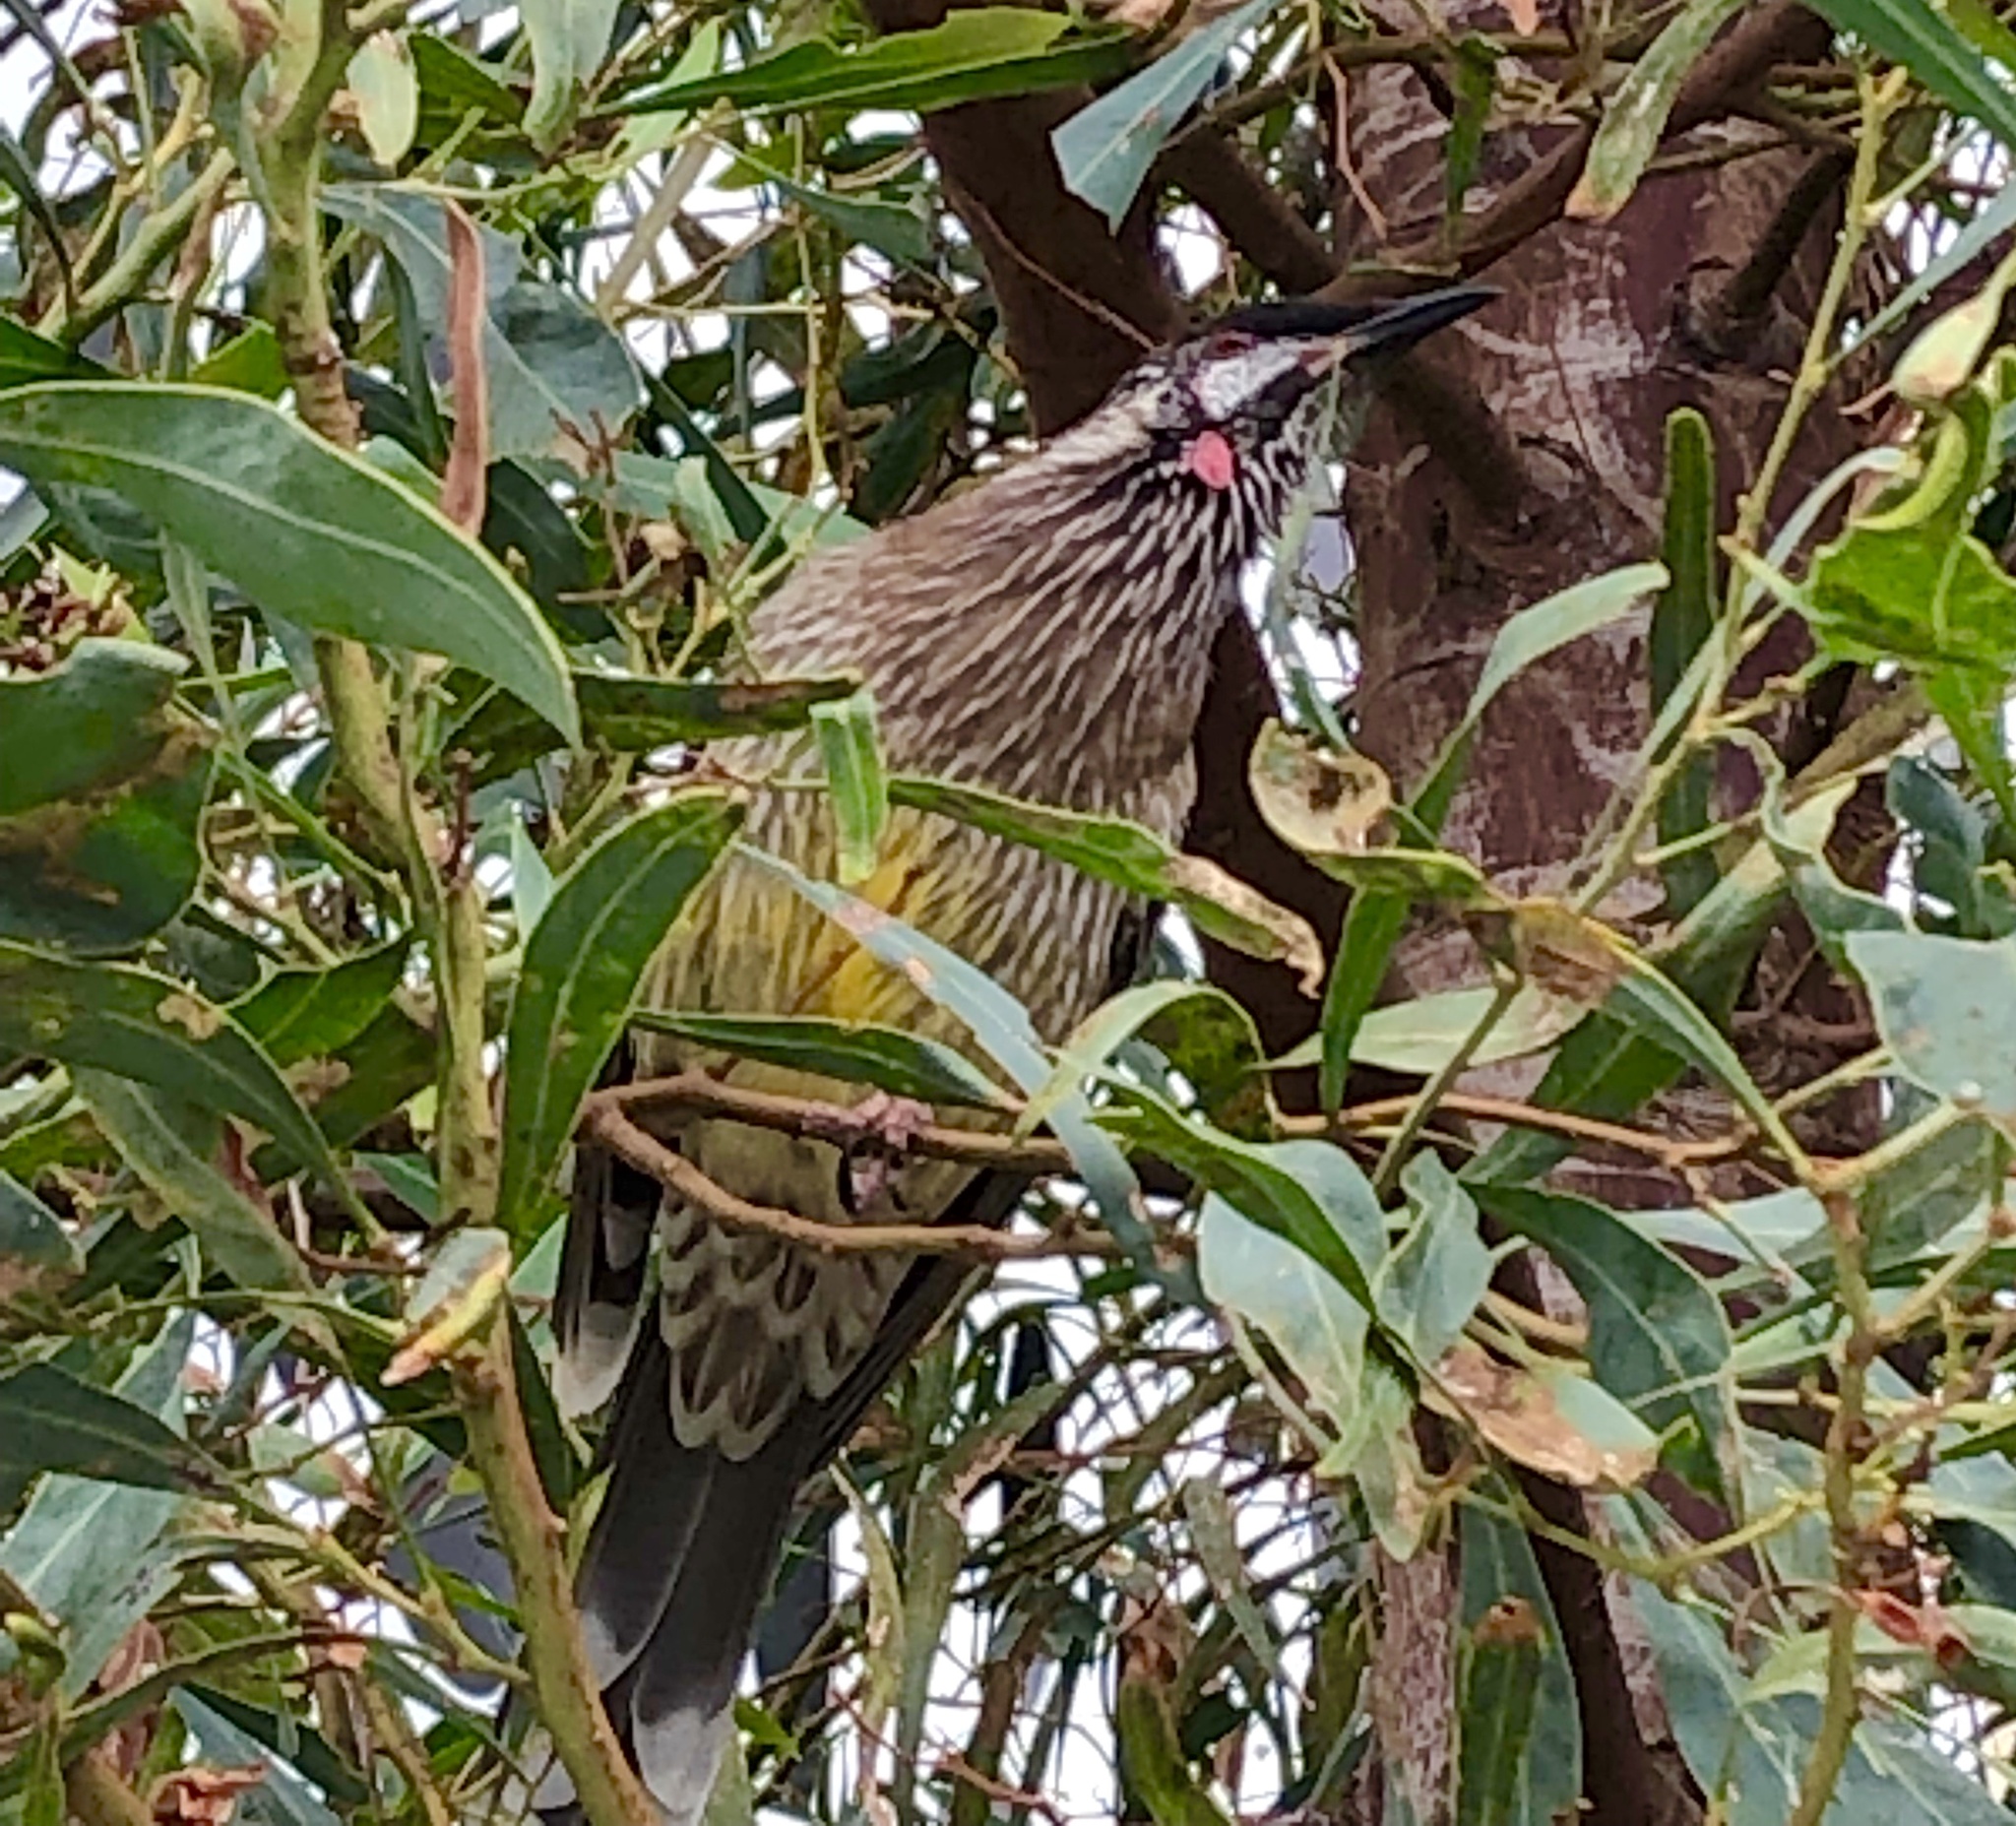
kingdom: Animalia
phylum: Chordata
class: Aves
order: Passeriformes
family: Meliphagidae
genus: Anthochaera
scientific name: Anthochaera carunculata
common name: Red wattlebird
